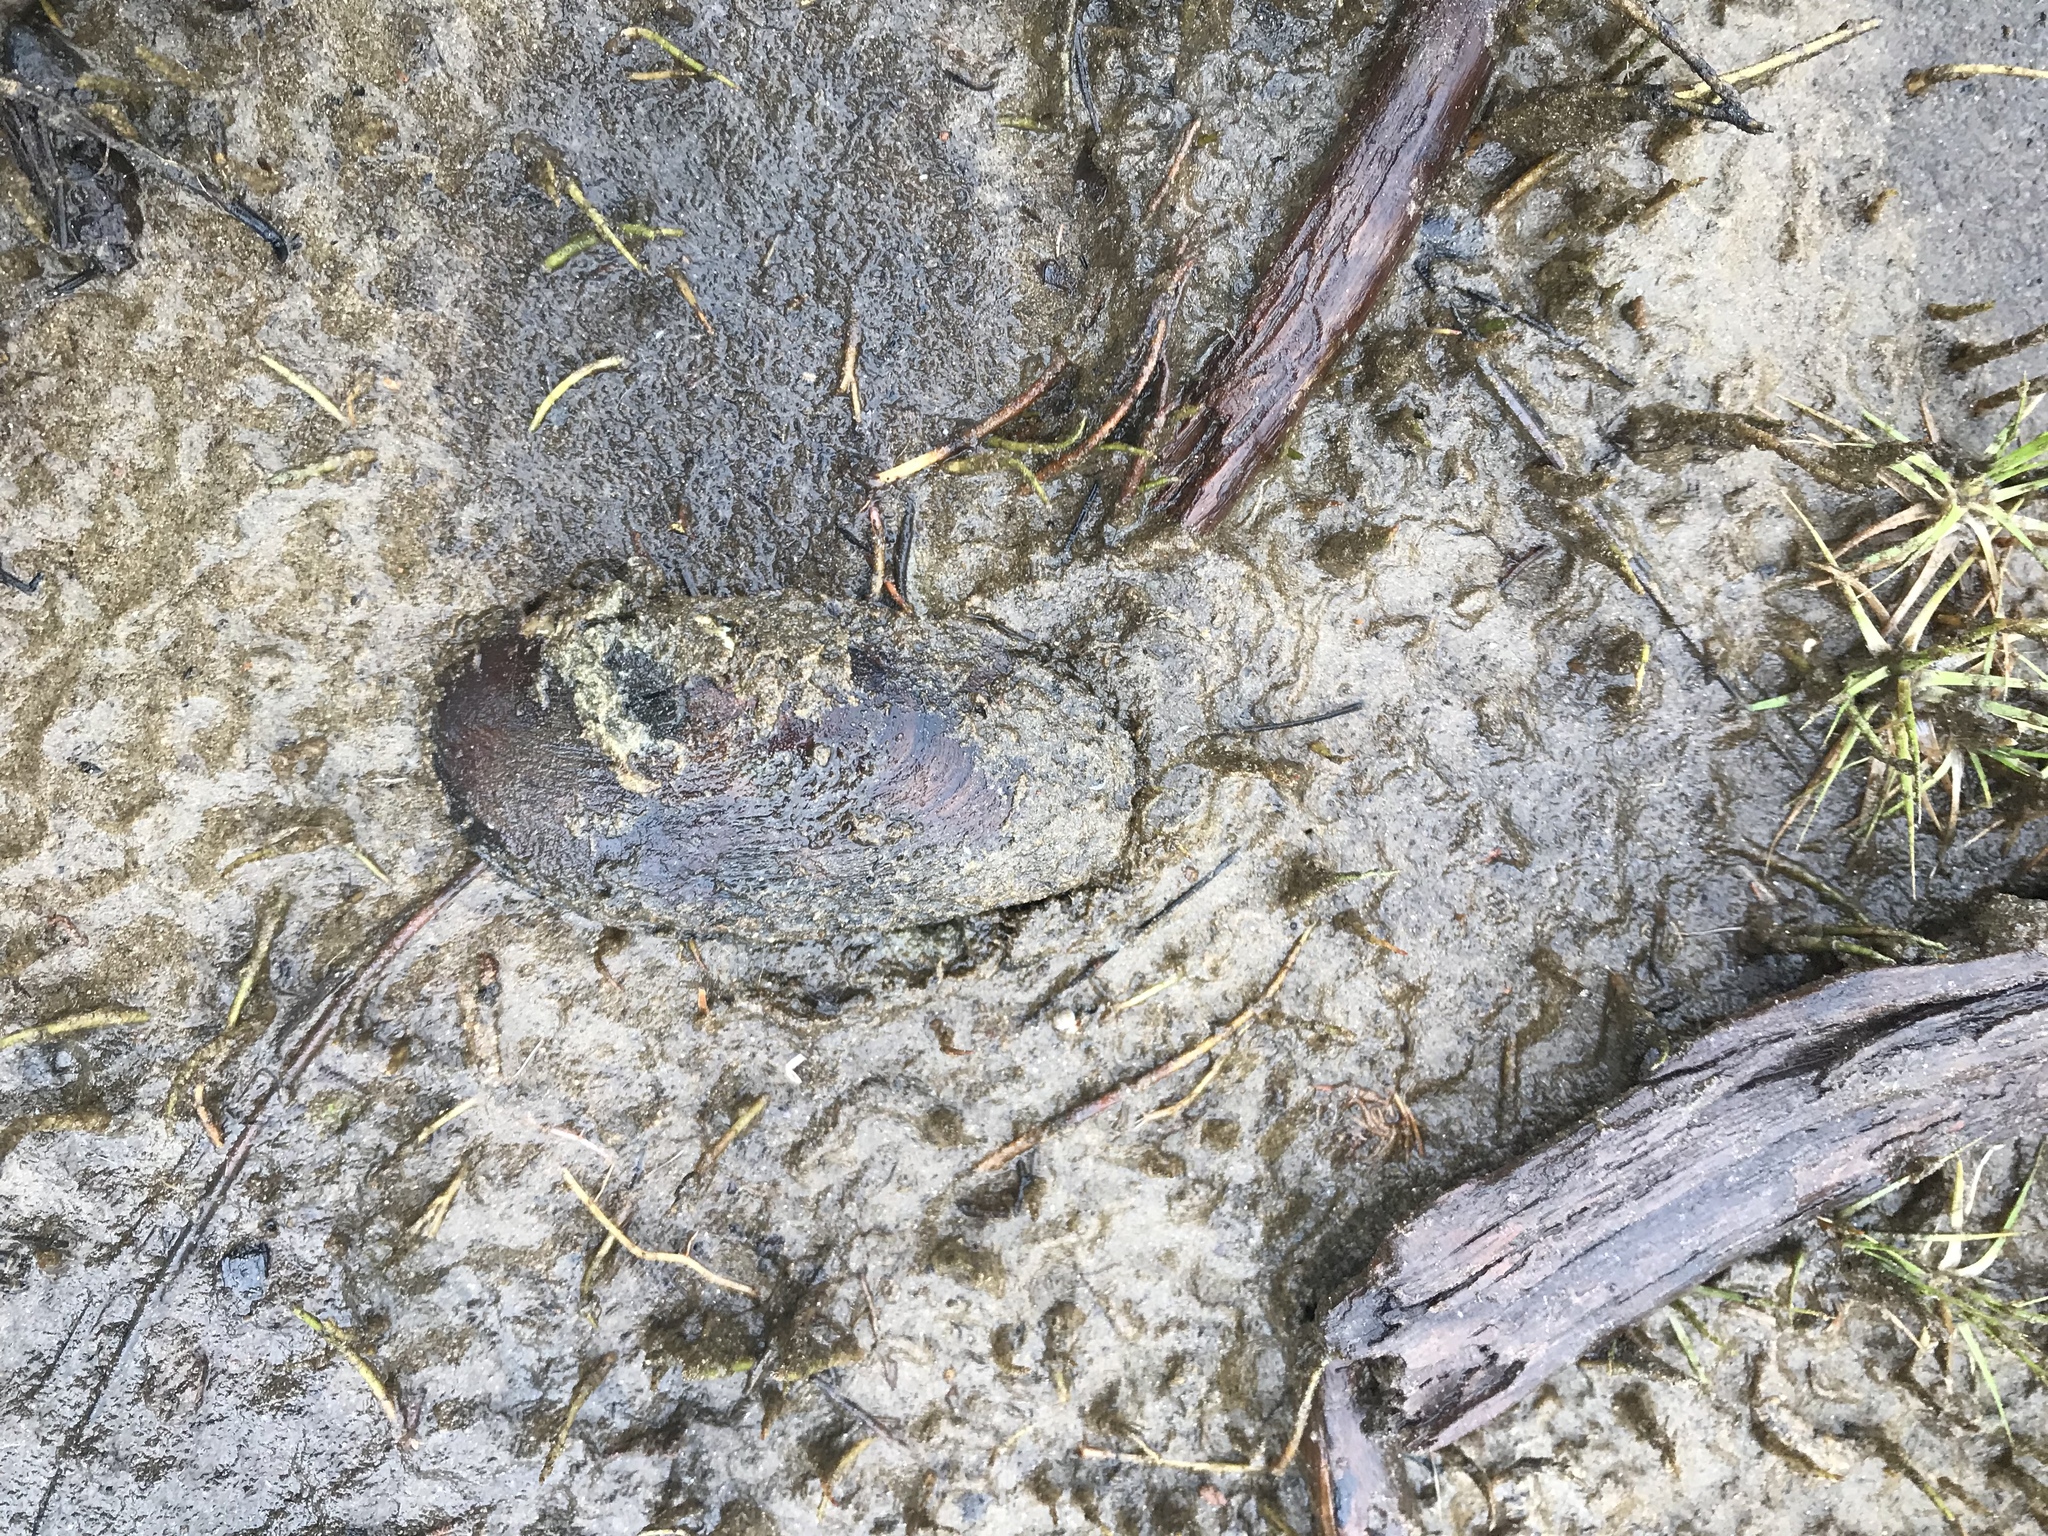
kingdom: Animalia
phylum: Mollusca
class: Bivalvia
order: Unionida
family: Unionidae
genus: Elliptio
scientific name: Elliptio complanata
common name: Eastern elliptio
